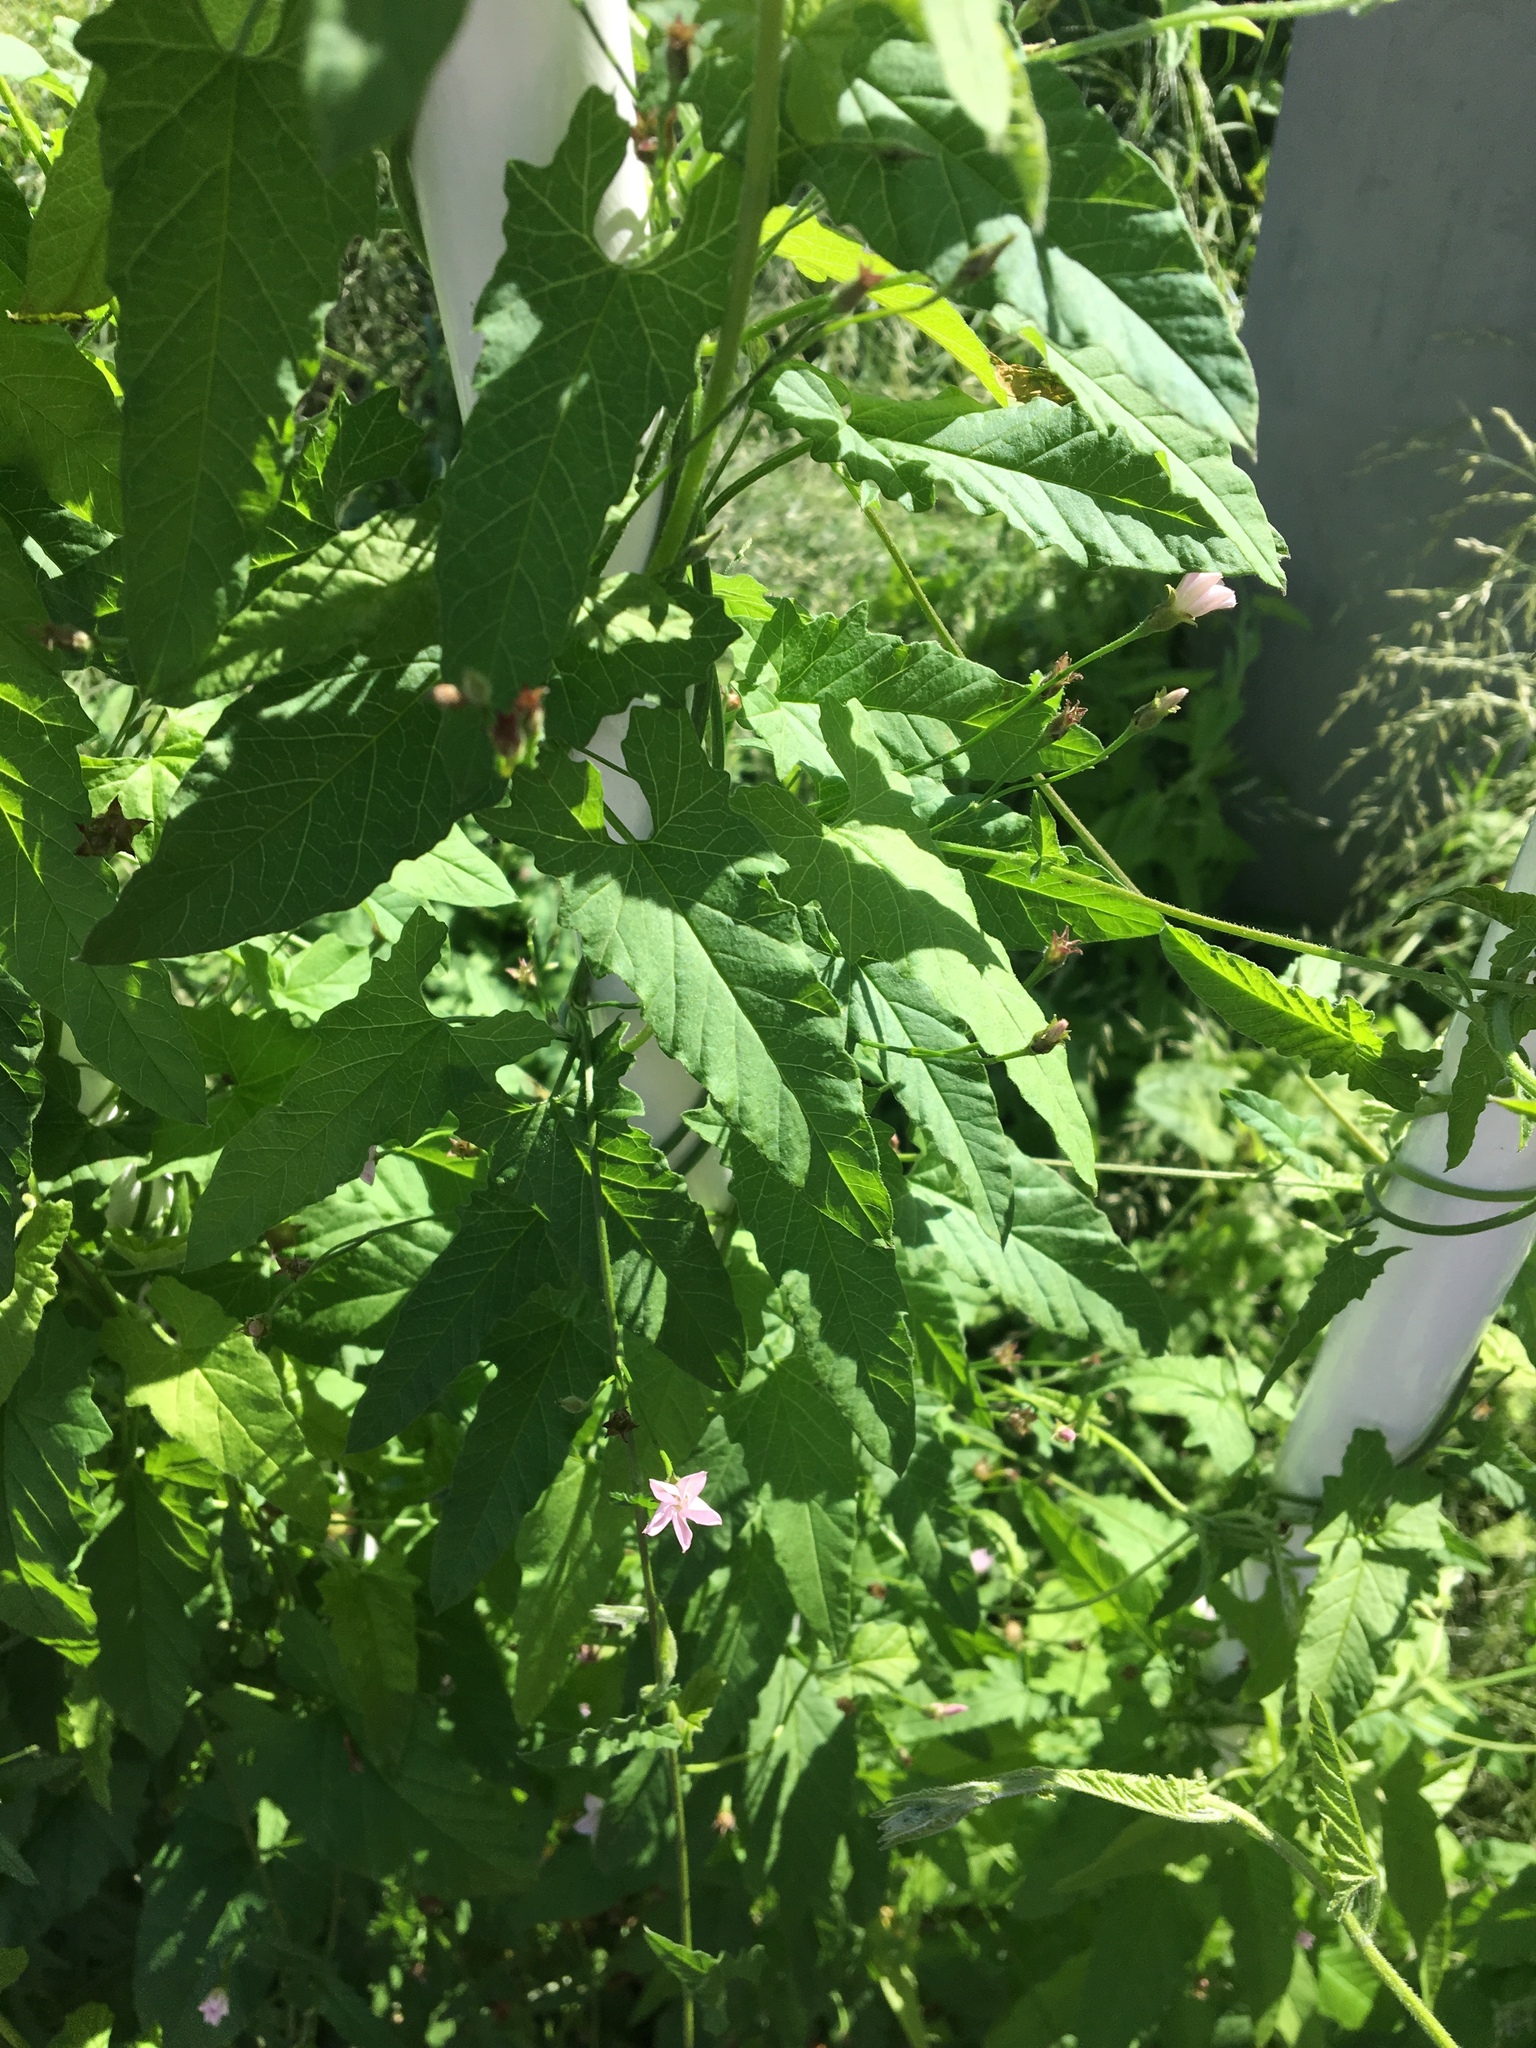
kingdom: Plantae
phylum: Tracheophyta
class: Magnoliopsida
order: Solanales
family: Convolvulaceae
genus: Convolvulus
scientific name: Convolvulus erubescens
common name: Australian bindweed
